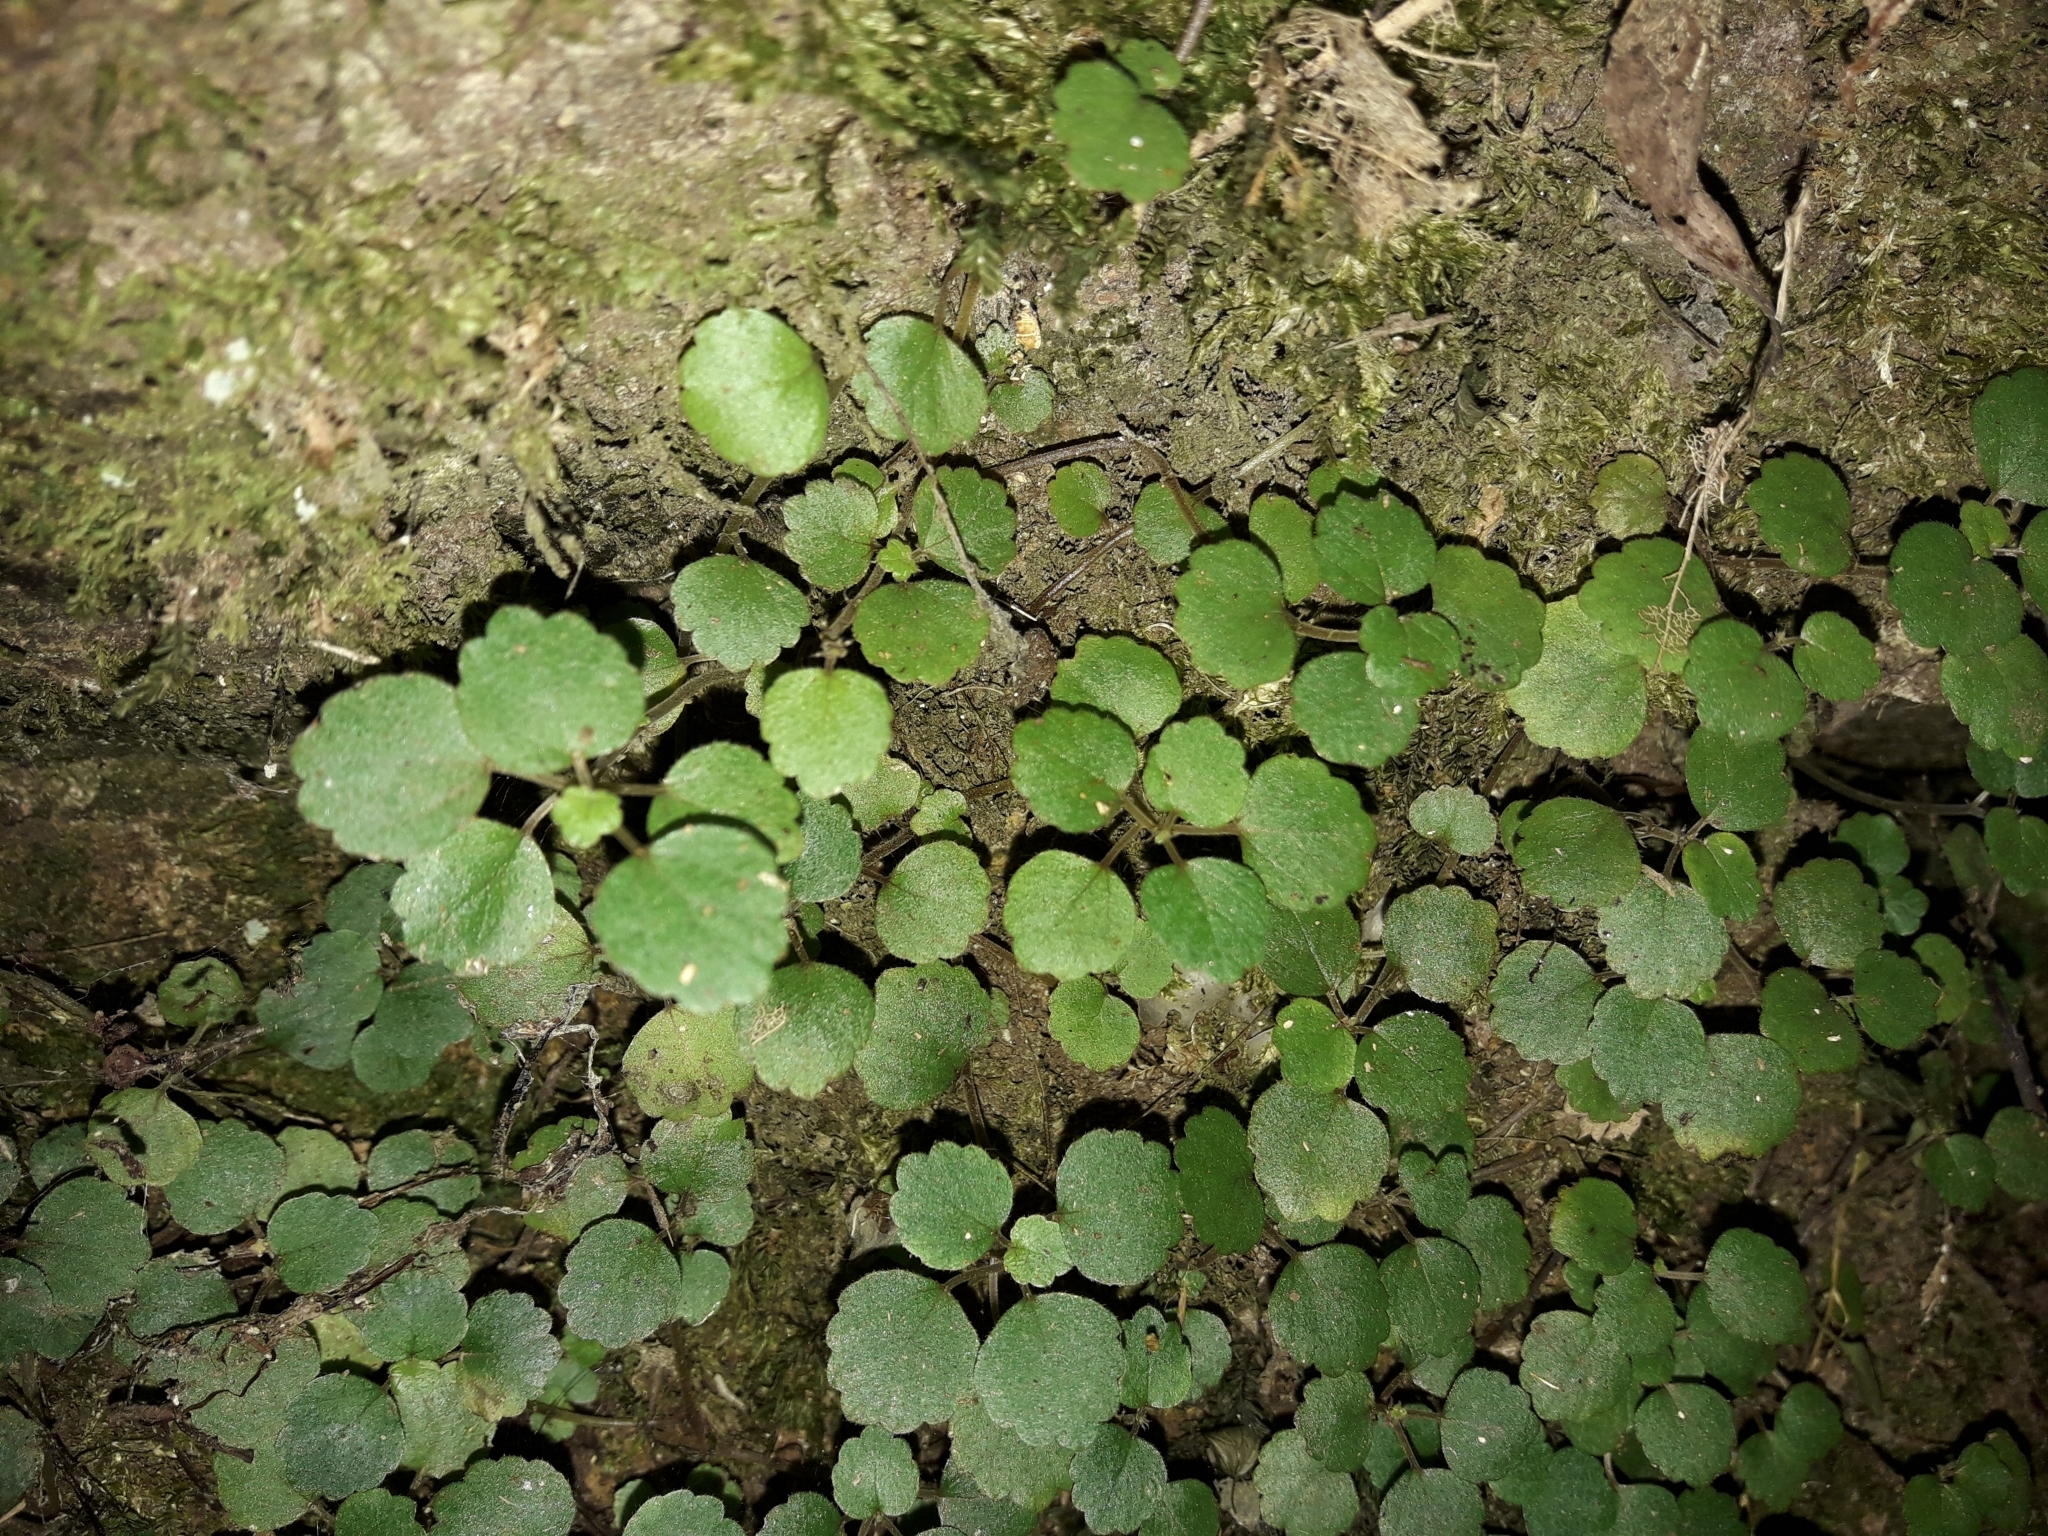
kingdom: Plantae
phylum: Tracheophyta
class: Magnoliopsida
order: Rosales
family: Urticaceae
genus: Australina
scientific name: Australina pusilla
